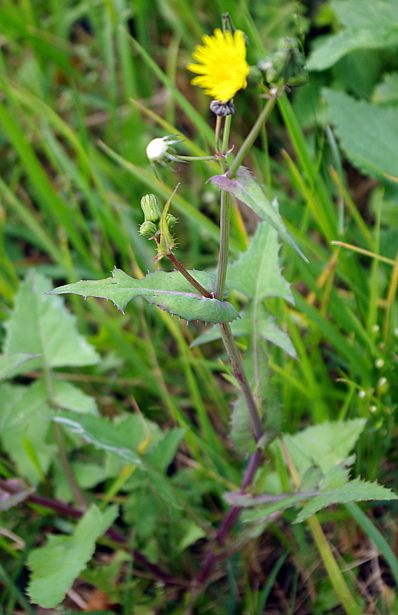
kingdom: Plantae
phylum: Tracheophyta
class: Magnoliopsida
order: Asterales
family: Asteraceae
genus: Sonchus
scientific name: Sonchus oleraceus
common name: Common sowthistle
